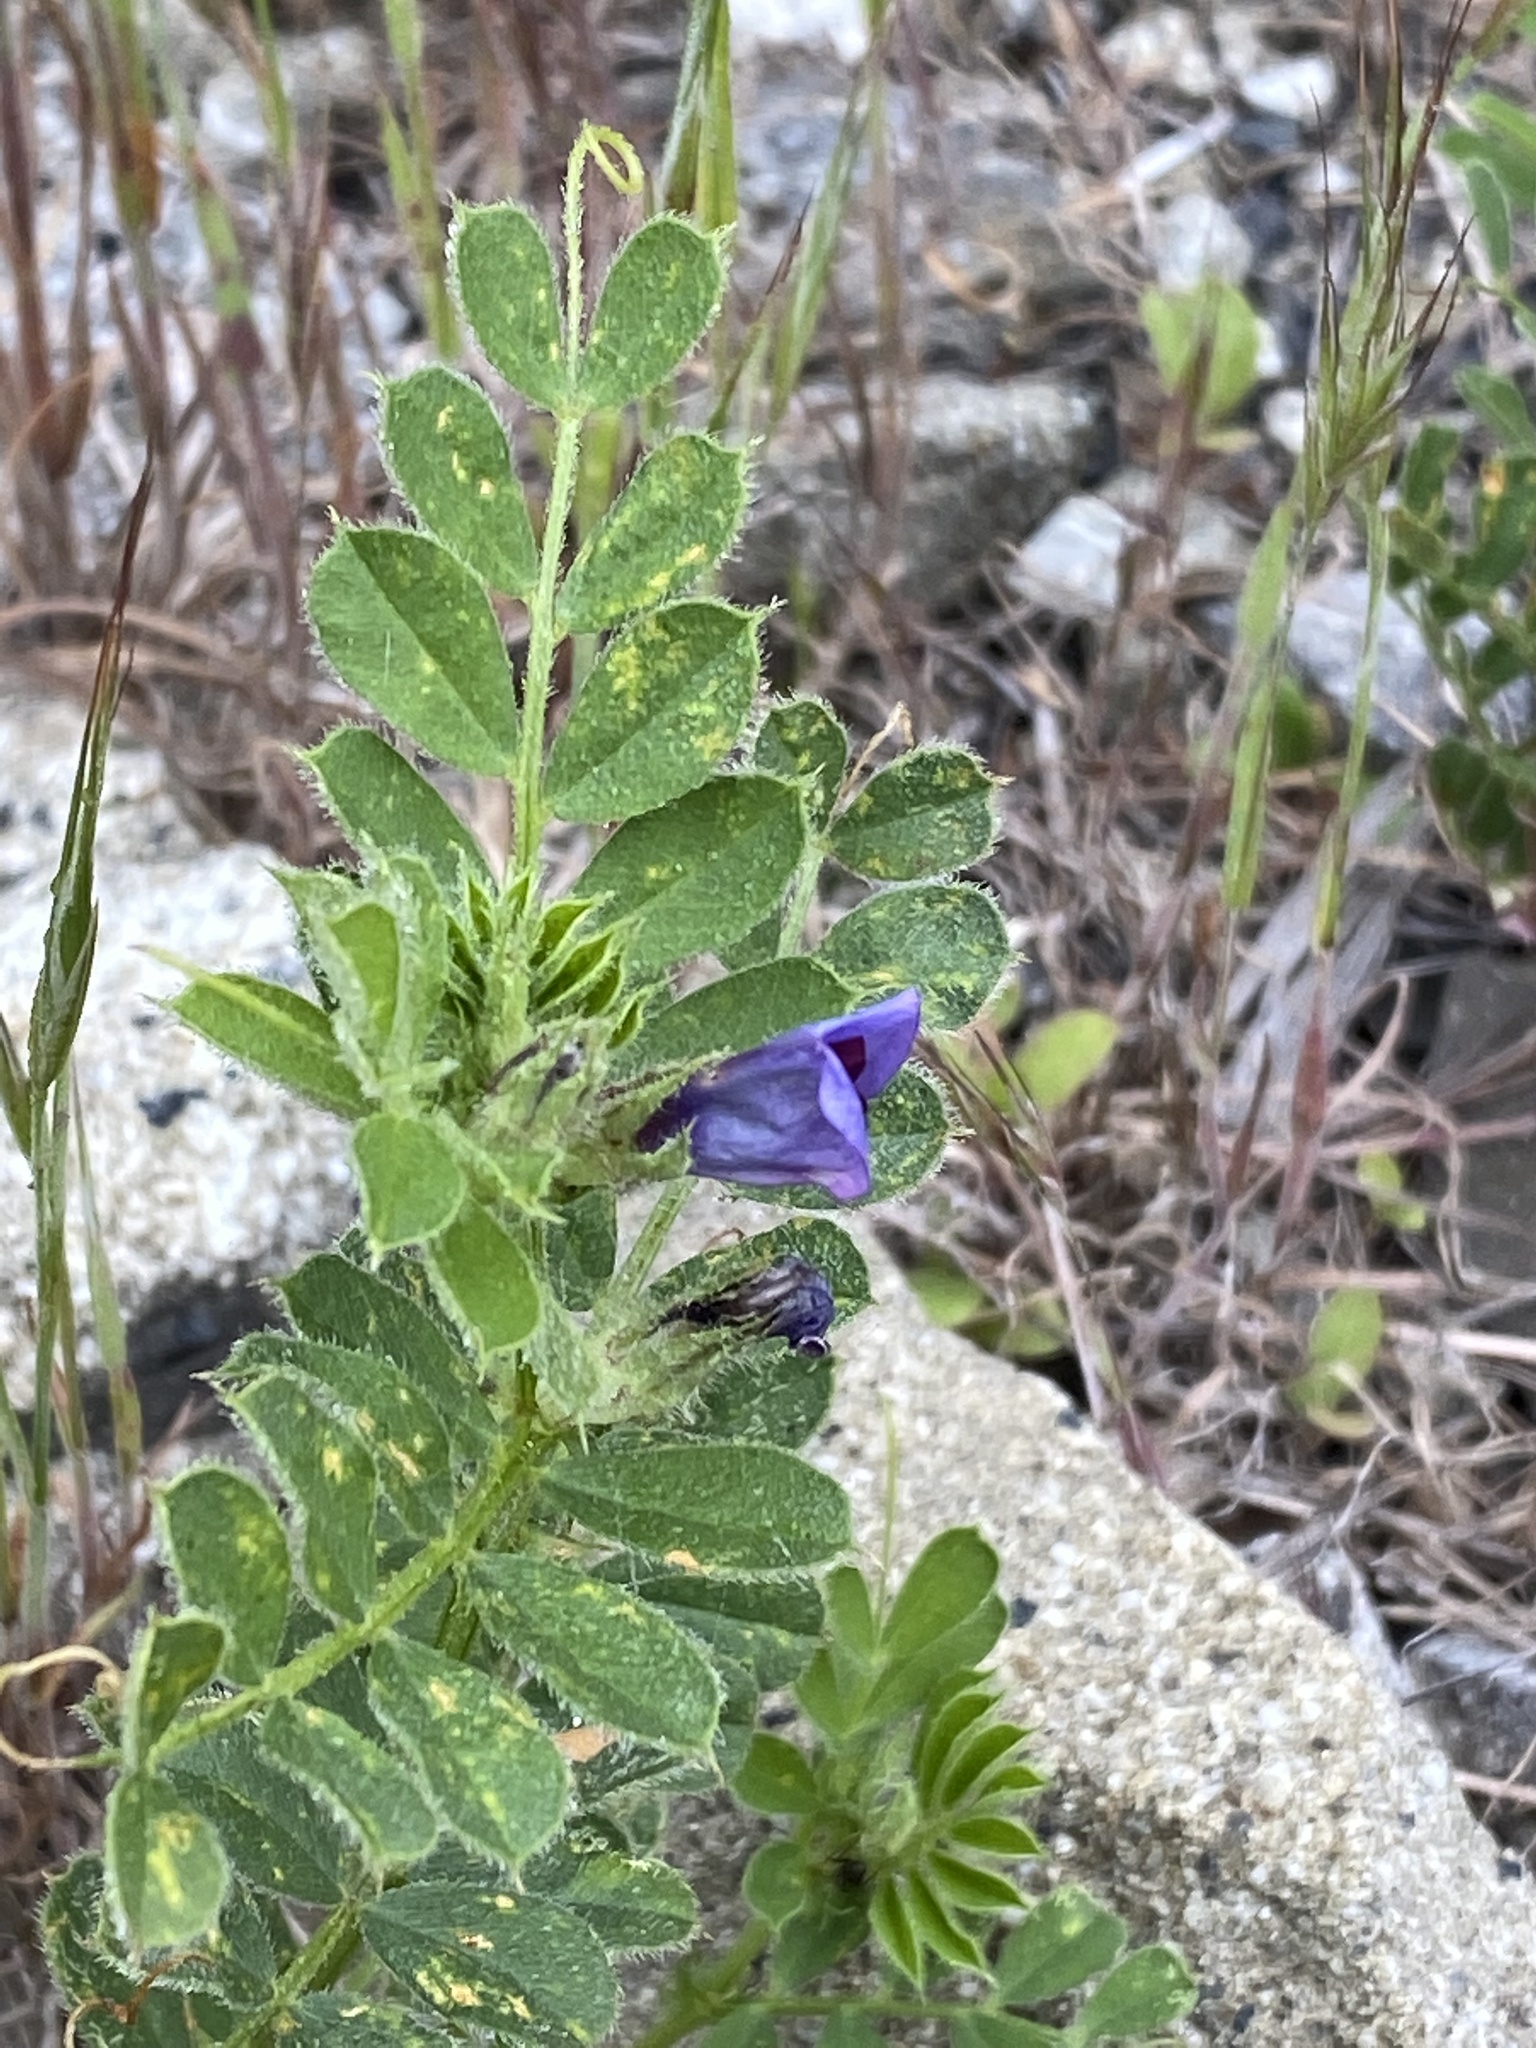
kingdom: Plantae
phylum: Tracheophyta
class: Magnoliopsida
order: Fabales
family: Fabaceae
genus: Vicia
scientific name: Vicia sativa
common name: Garden vetch
